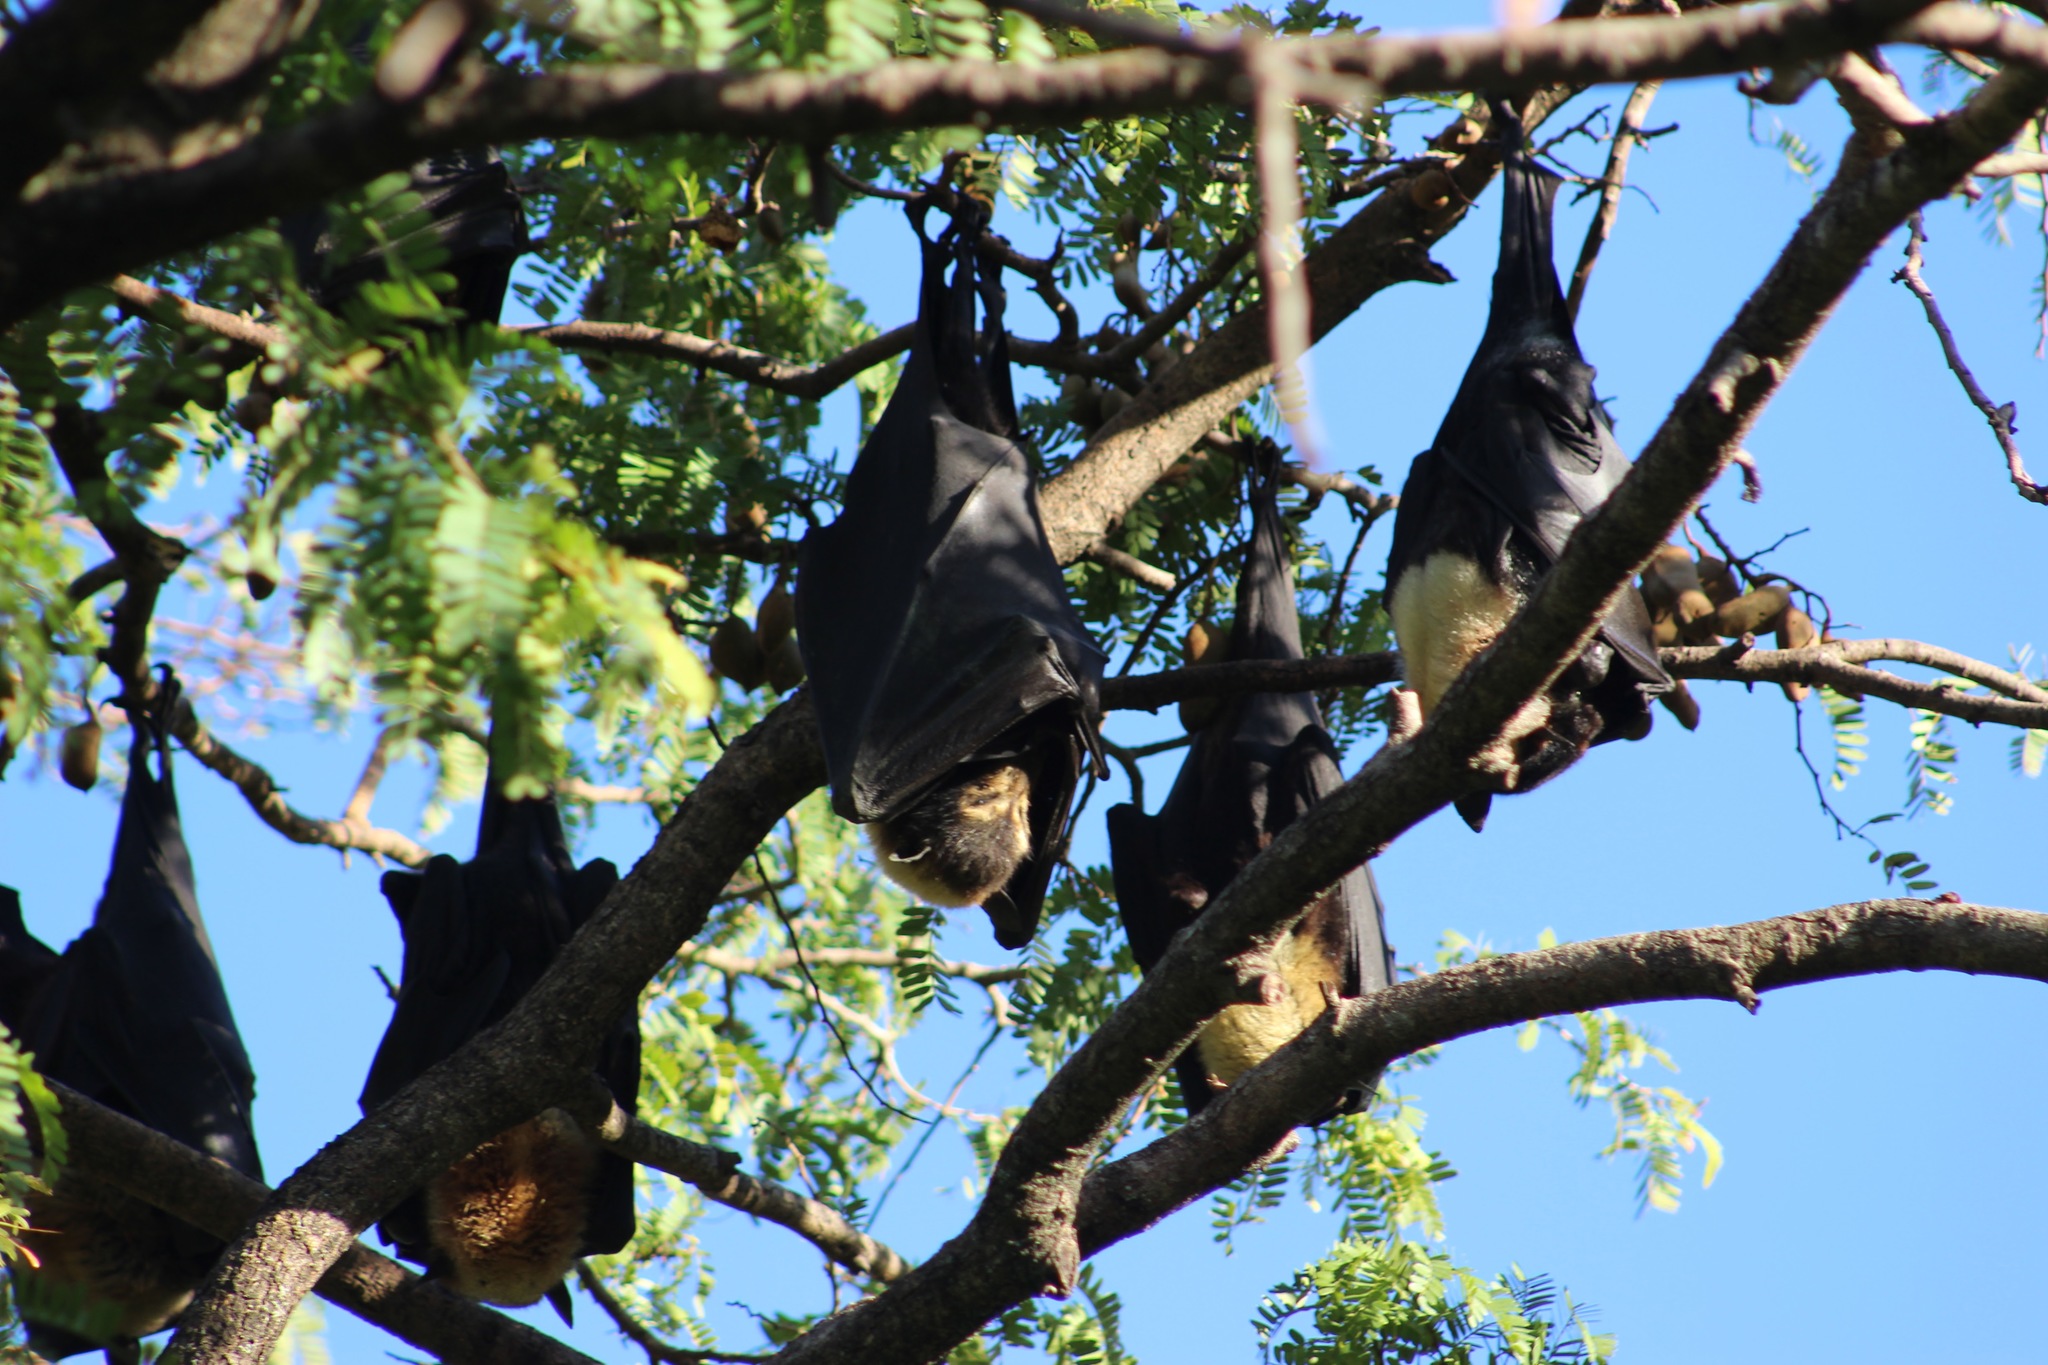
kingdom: Animalia
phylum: Chordata
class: Mammalia
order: Chiroptera
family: Pteropodidae
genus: Pteropus
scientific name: Pteropus conspicillatus
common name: Spectacled flying fox
